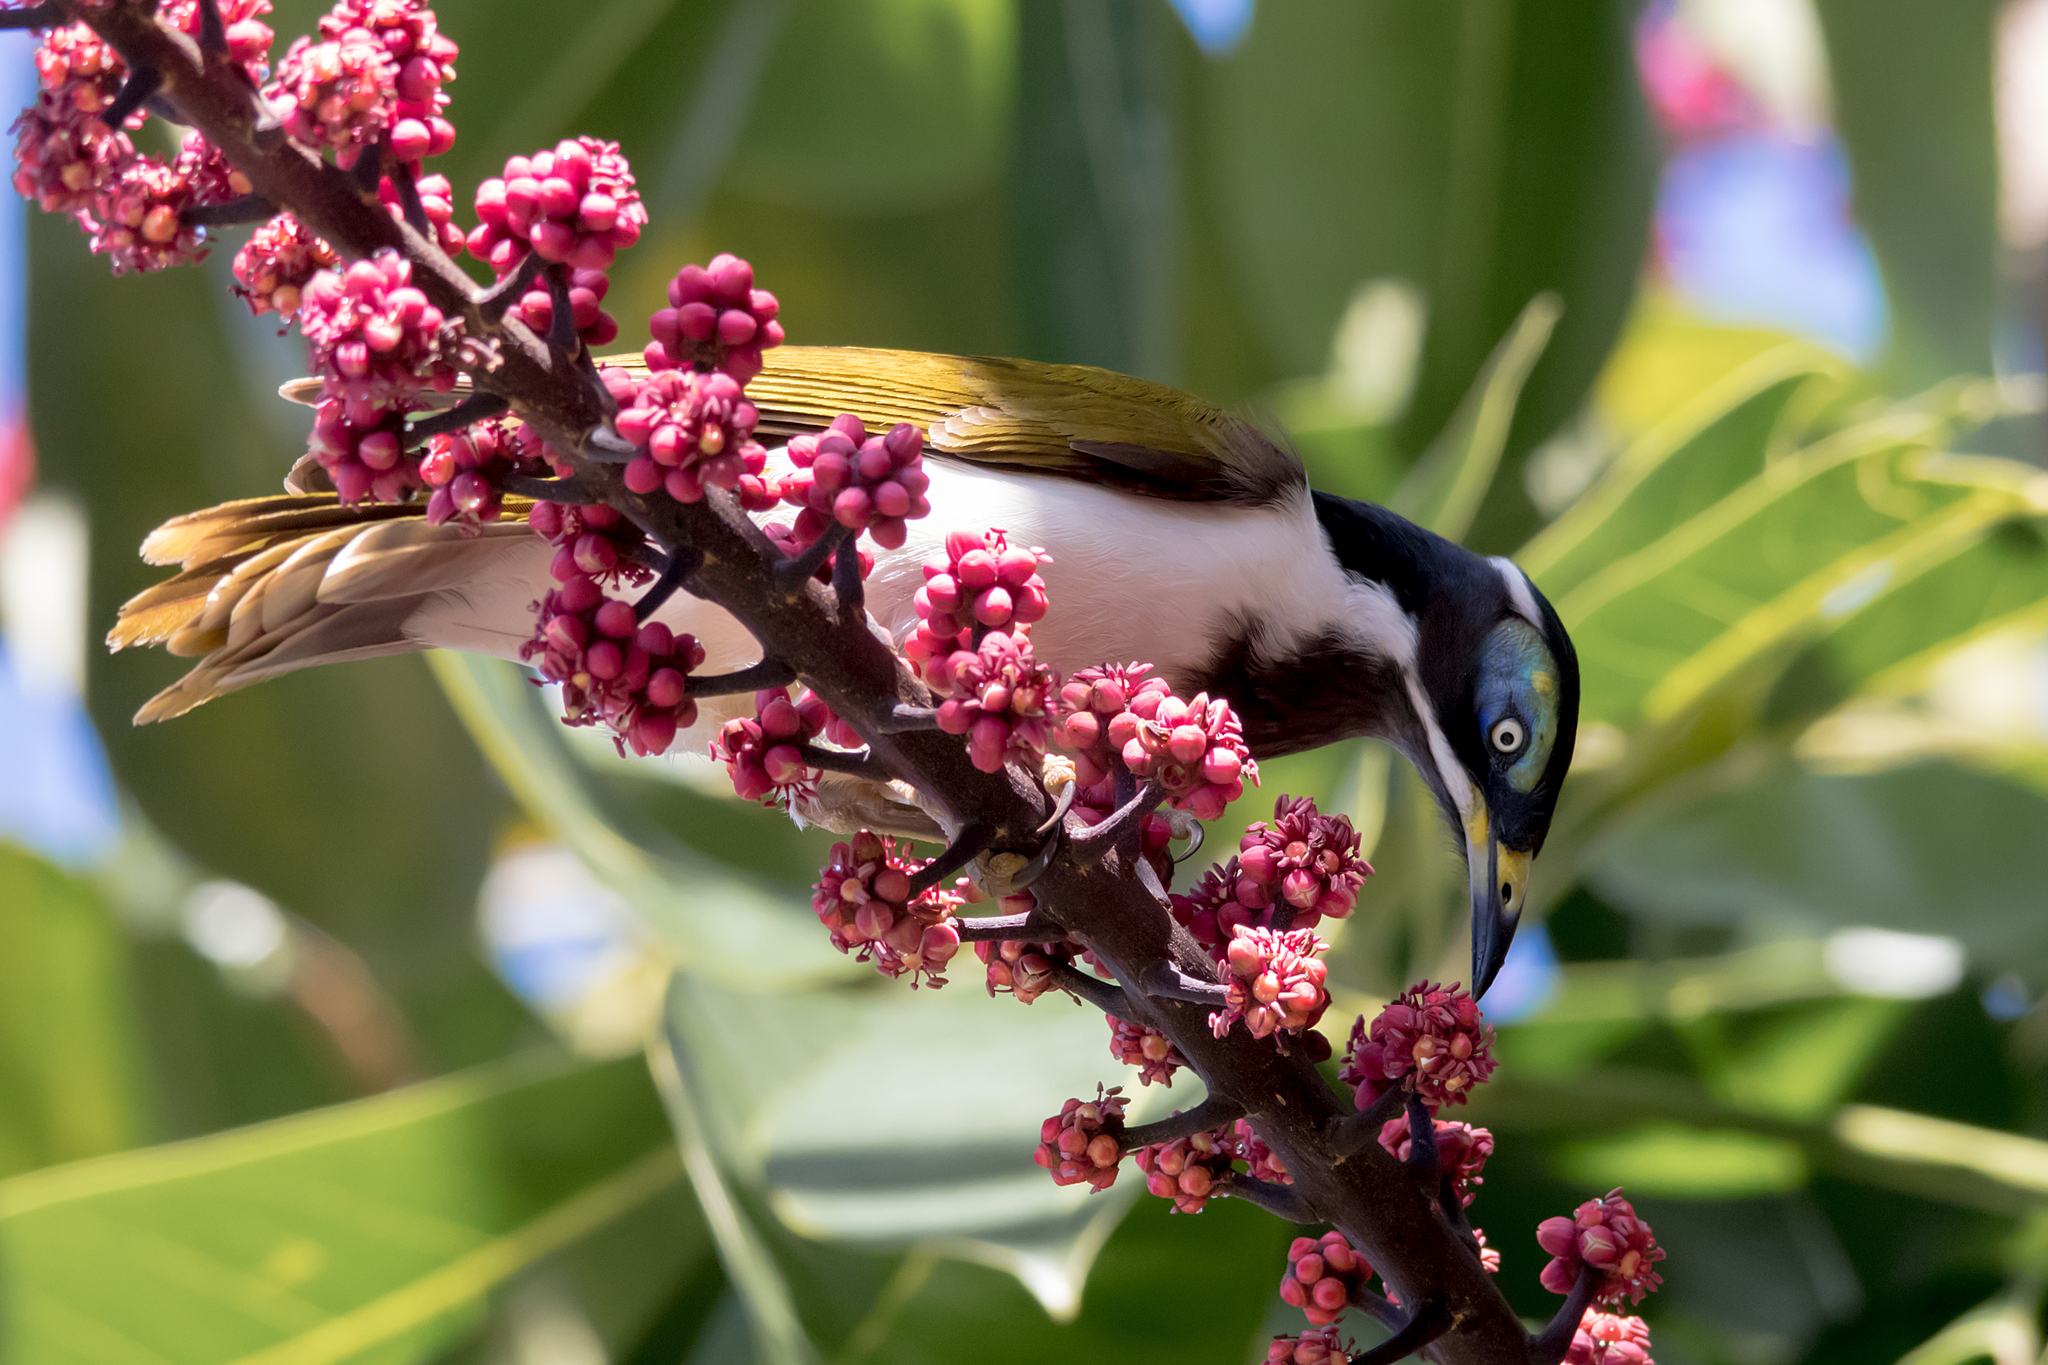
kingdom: Animalia
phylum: Chordata
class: Aves
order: Passeriformes
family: Meliphagidae
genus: Entomyzon
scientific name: Entomyzon cyanotis
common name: Blue-faced honeyeater
